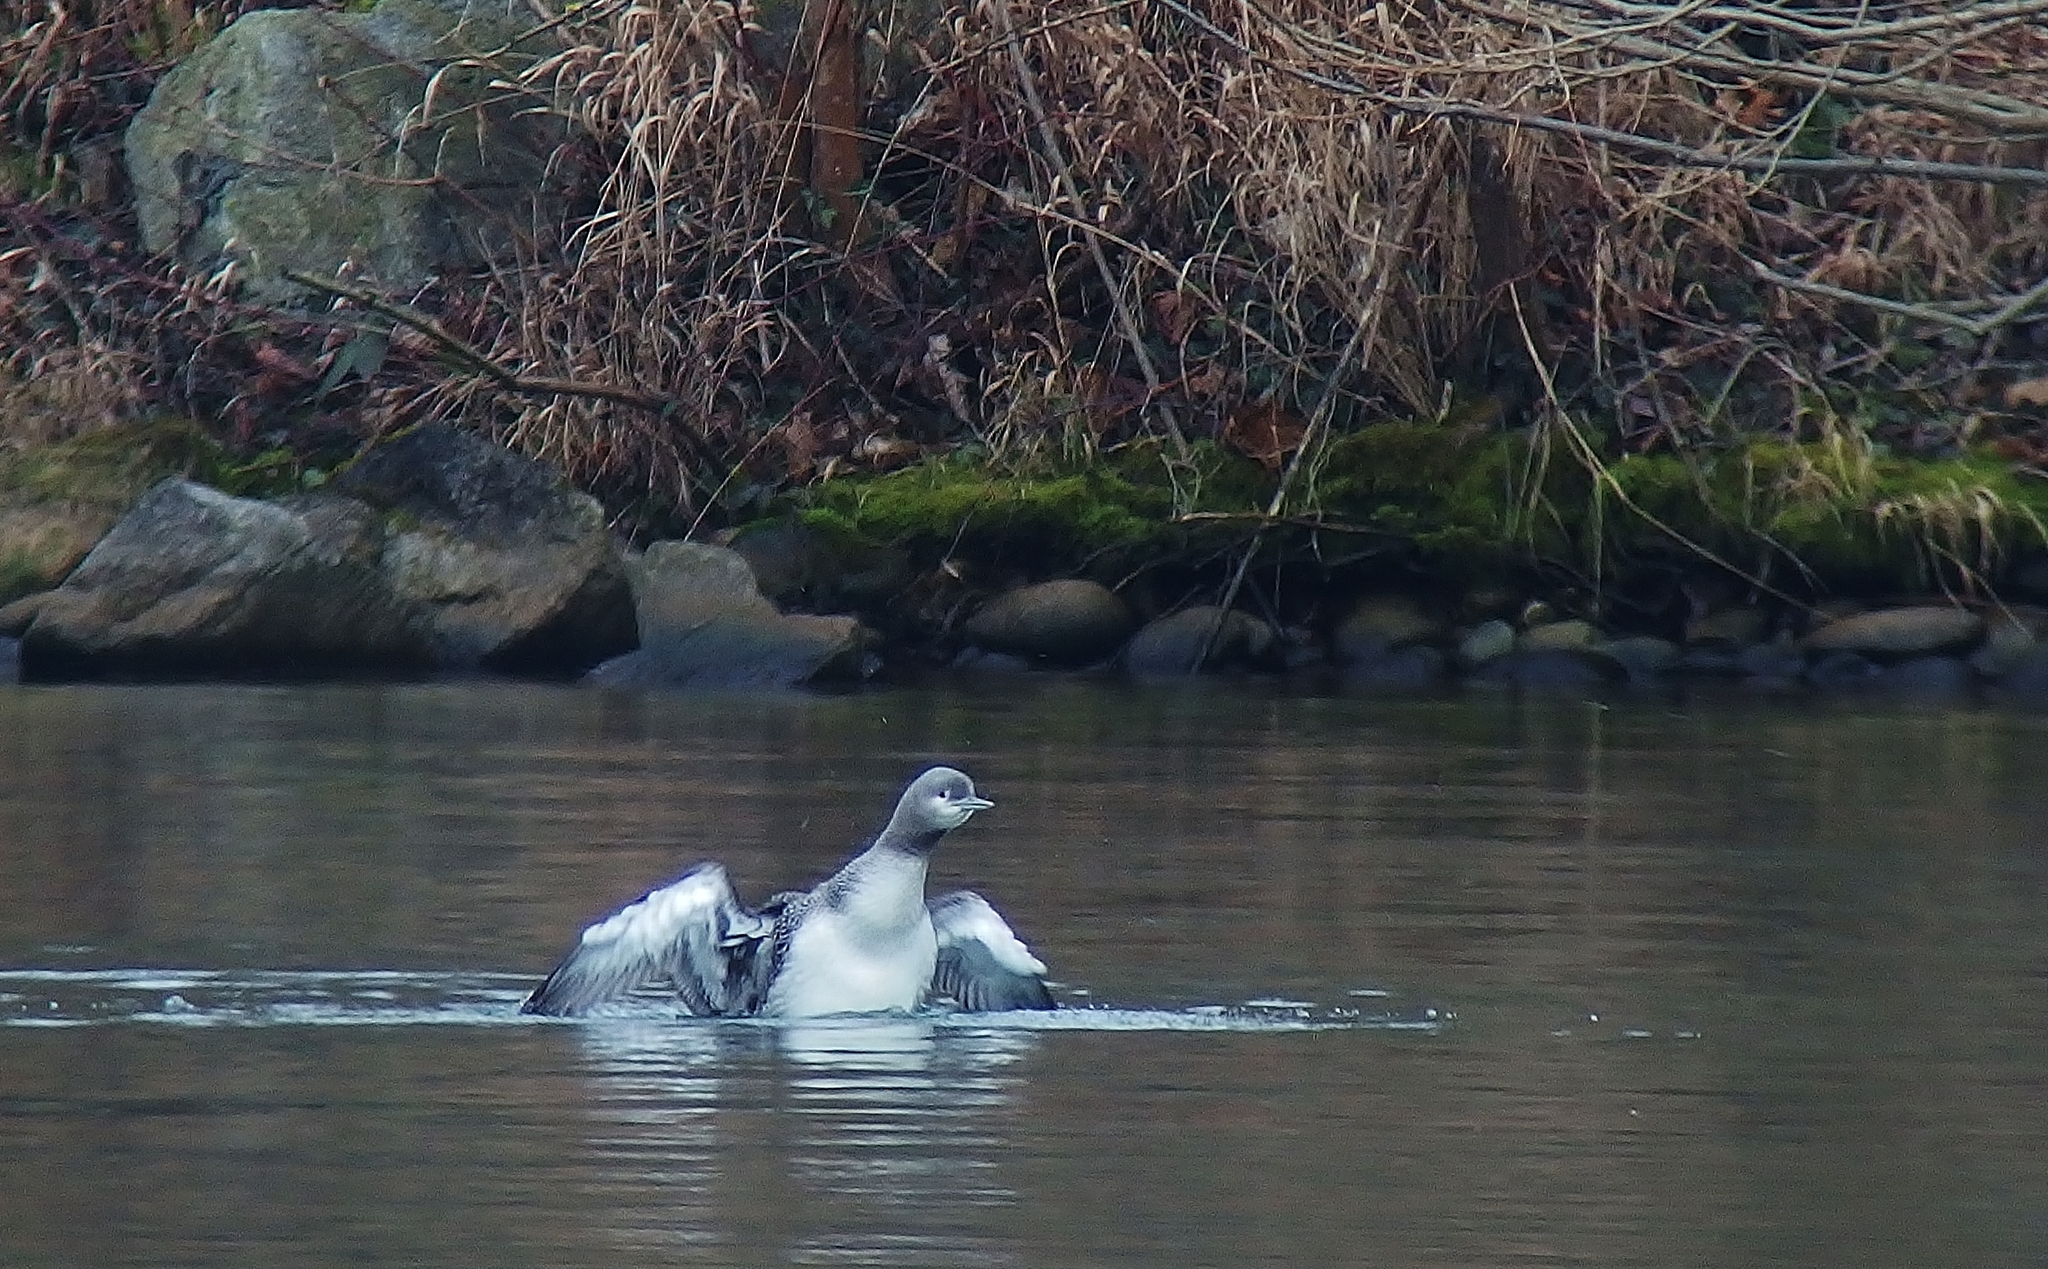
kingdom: Animalia
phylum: Chordata
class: Aves
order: Gaviiformes
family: Gaviidae
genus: Gavia
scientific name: Gavia stellata
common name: Red-throated loon
